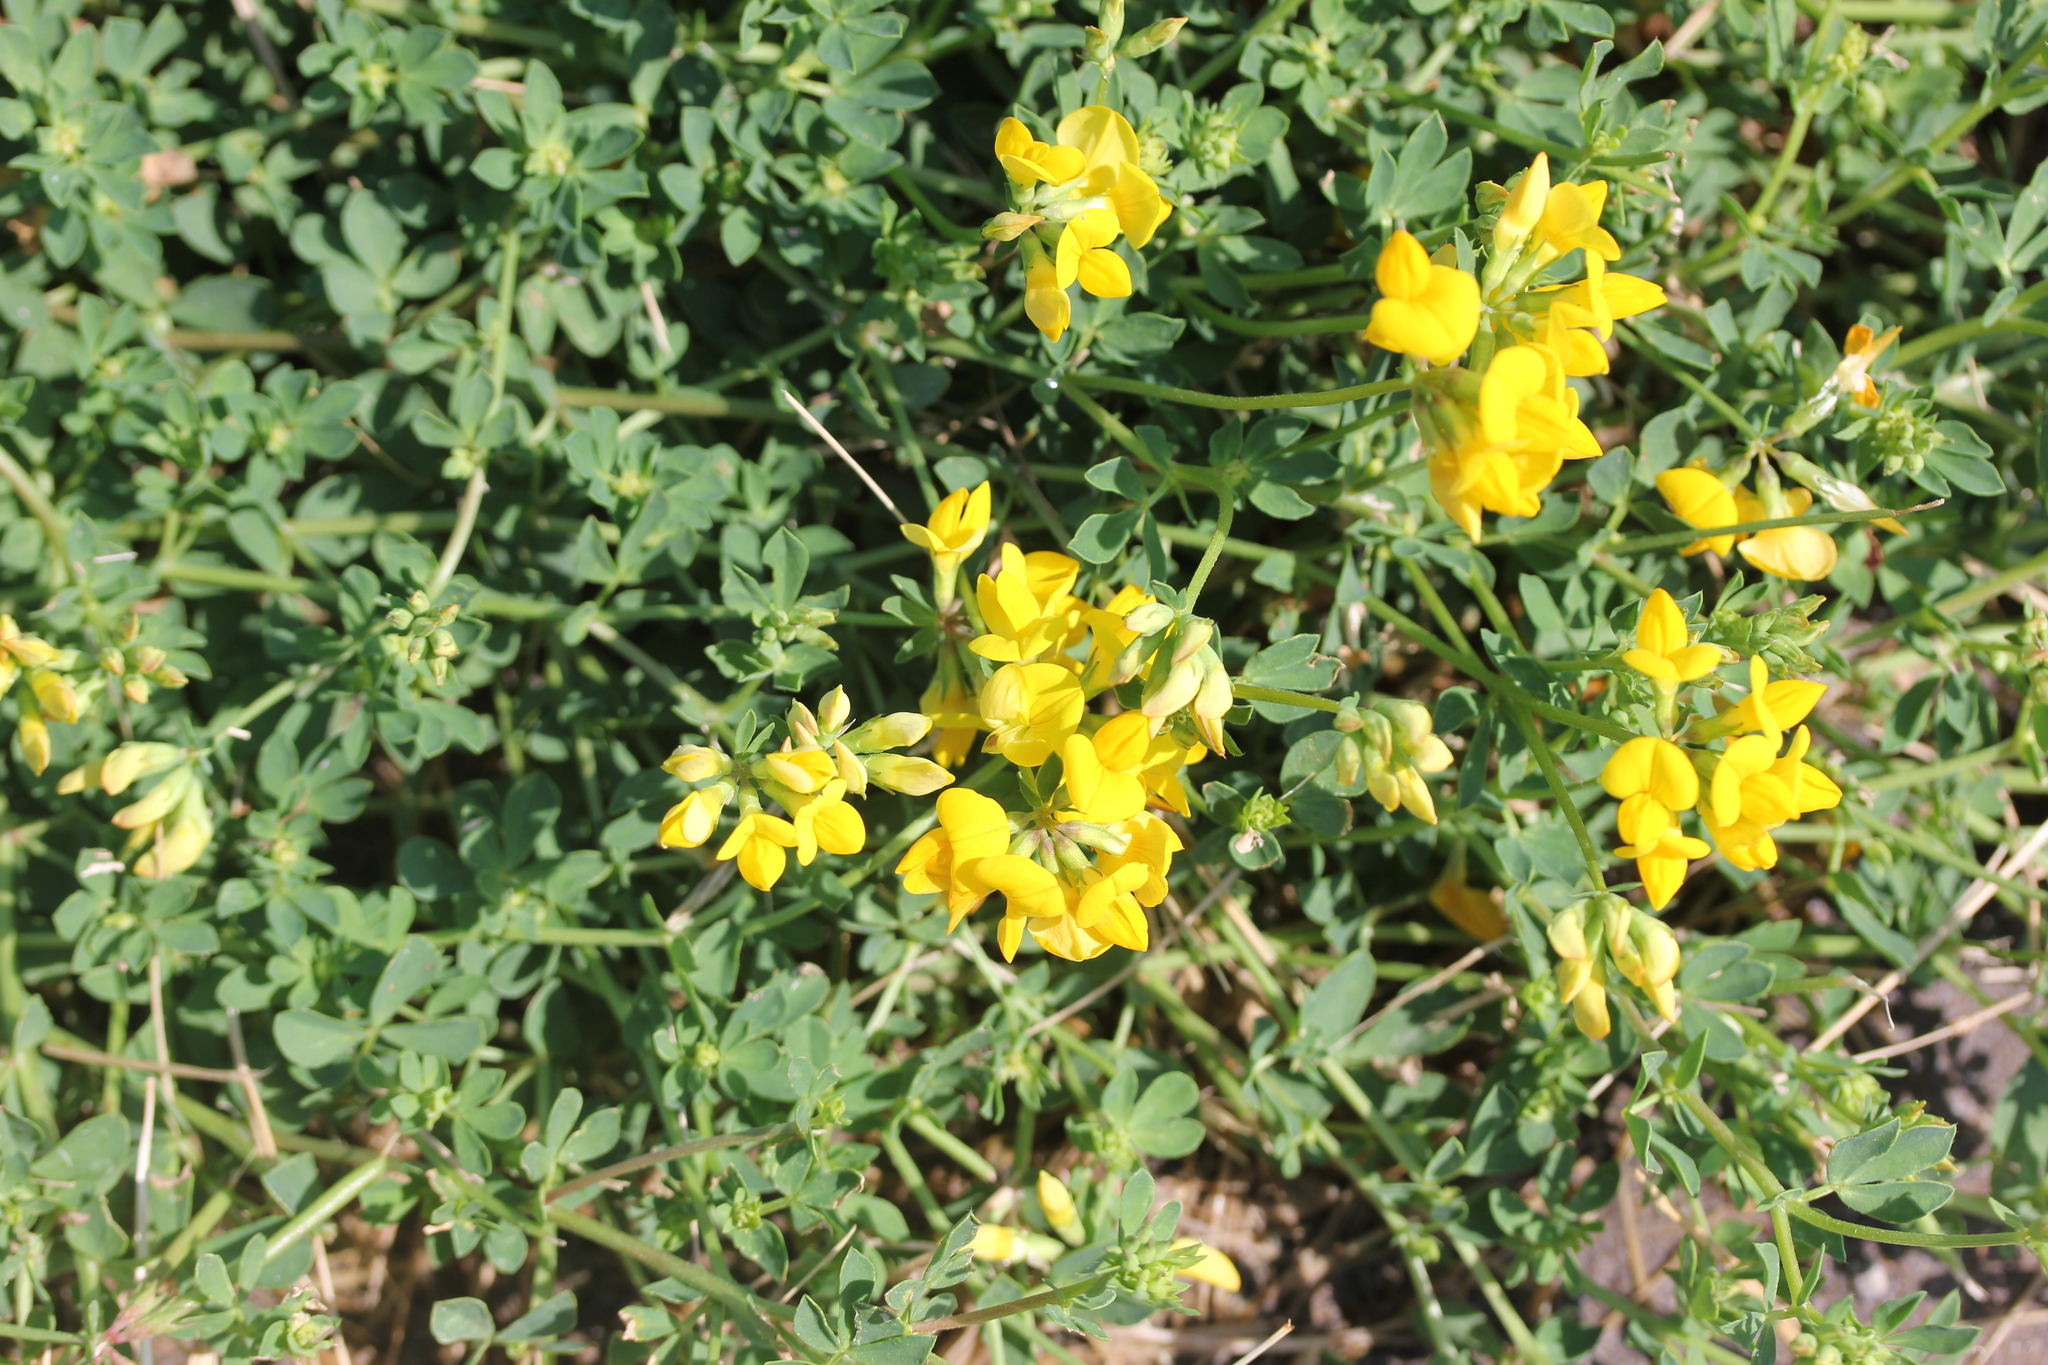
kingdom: Plantae
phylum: Tracheophyta
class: Magnoliopsida
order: Fabales
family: Fabaceae
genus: Lotus
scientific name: Lotus corniculatus
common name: Common bird's-foot-trefoil
